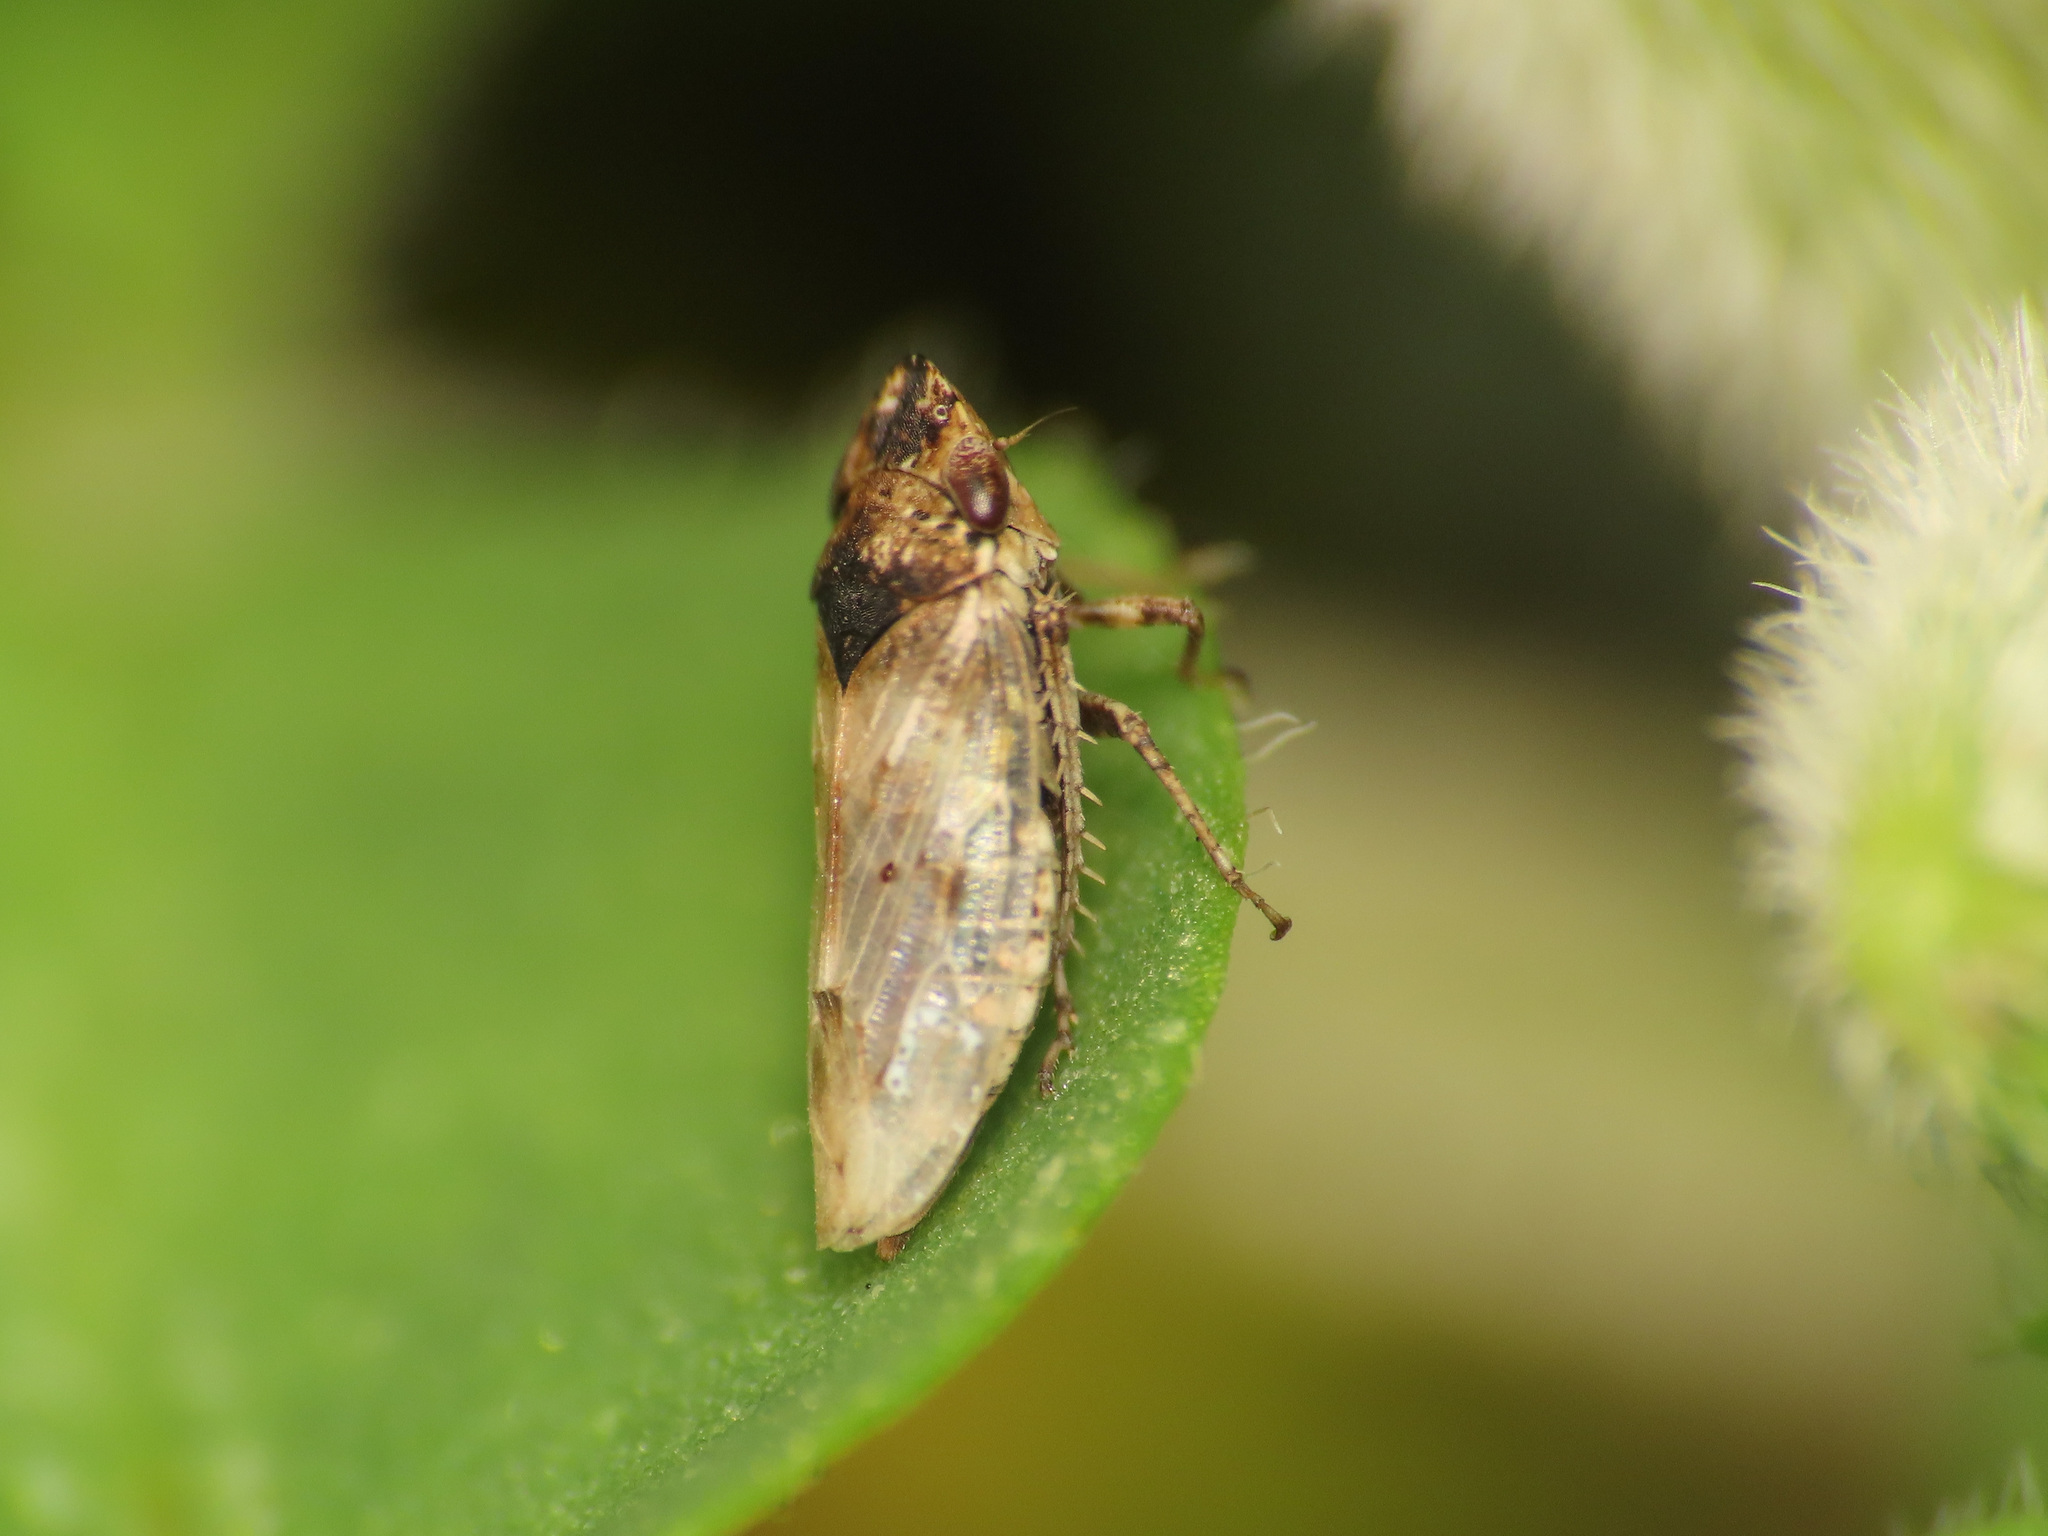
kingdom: Animalia
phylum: Arthropoda
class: Insecta
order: Hemiptera
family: Cicadellidae
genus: Chiasmus
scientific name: Chiasmus conspurcatus
